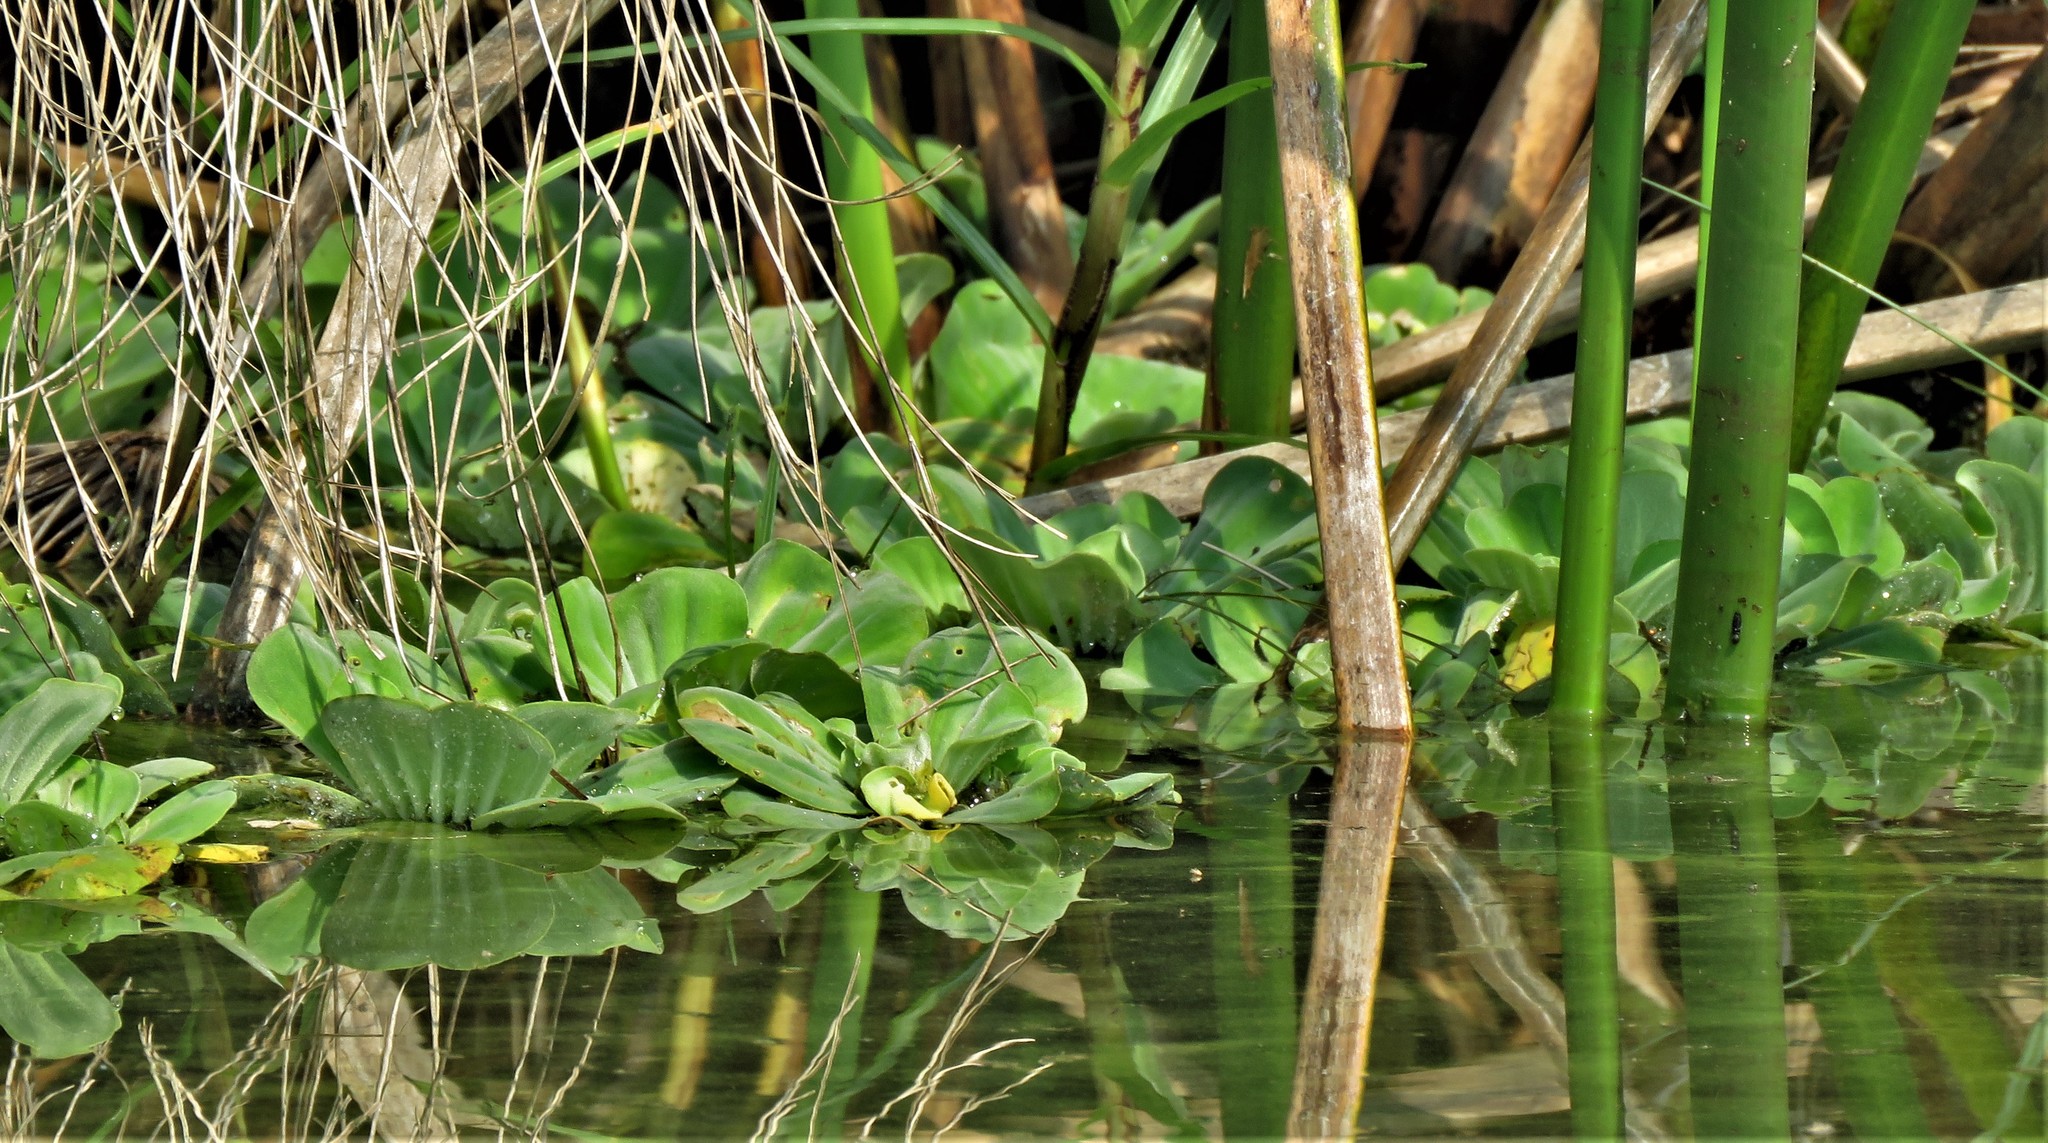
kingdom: Plantae
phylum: Tracheophyta
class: Liliopsida
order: Alismatales
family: Araceae
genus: Pistia
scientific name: Pistia stratiotes
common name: Water lettuce
